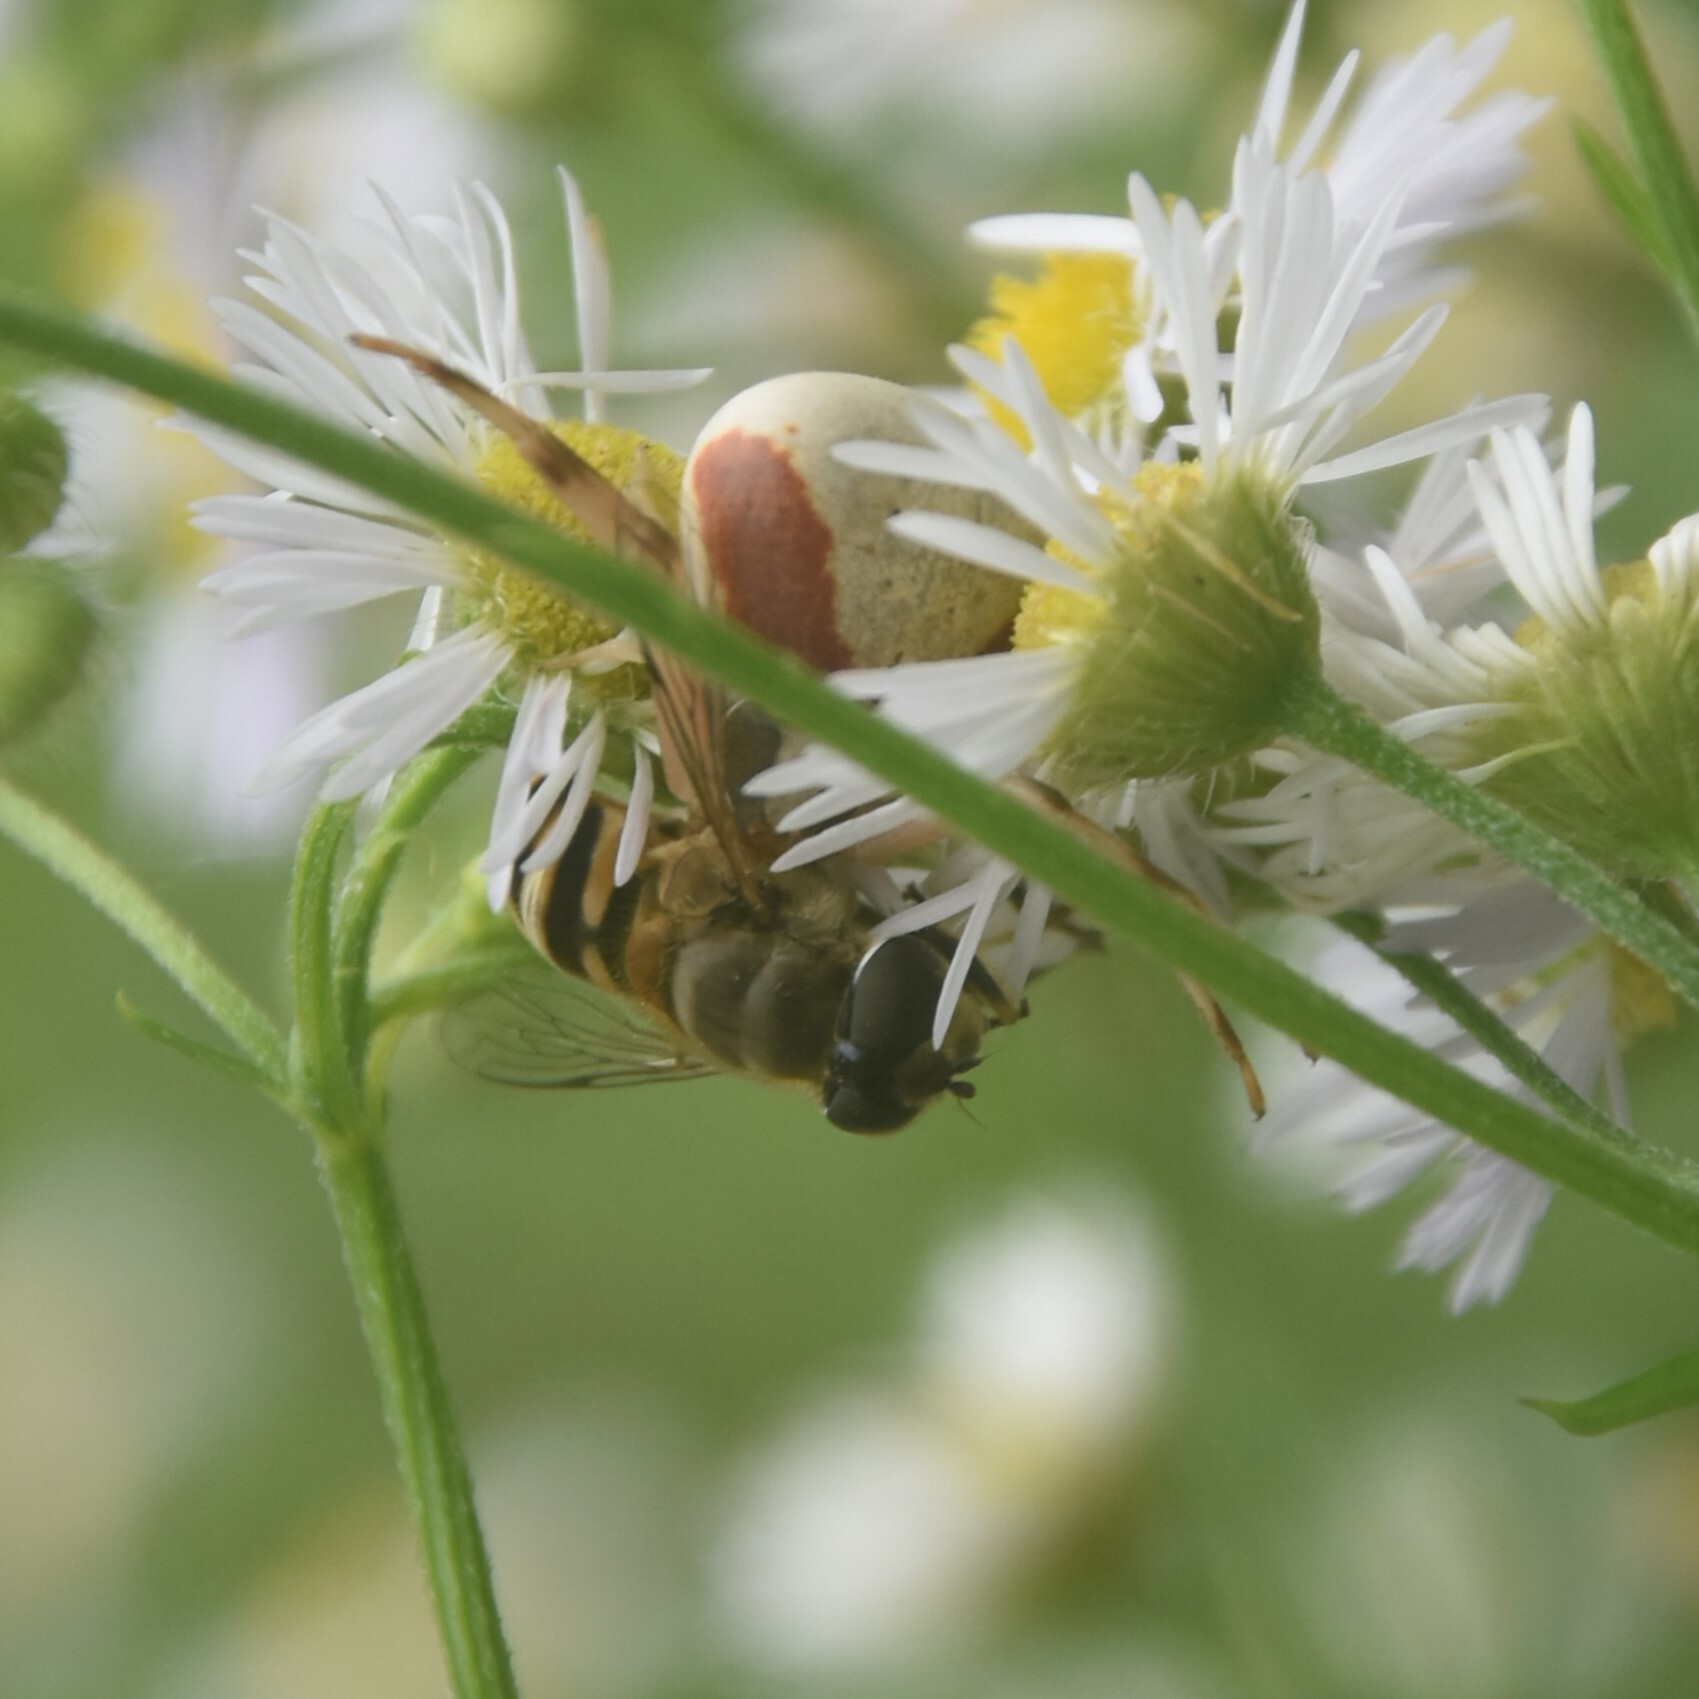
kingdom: Animalia
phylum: Arthropoda
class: Insecta
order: Diptera
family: Syrphidae
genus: Eristalis
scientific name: Eristalis cerealis
